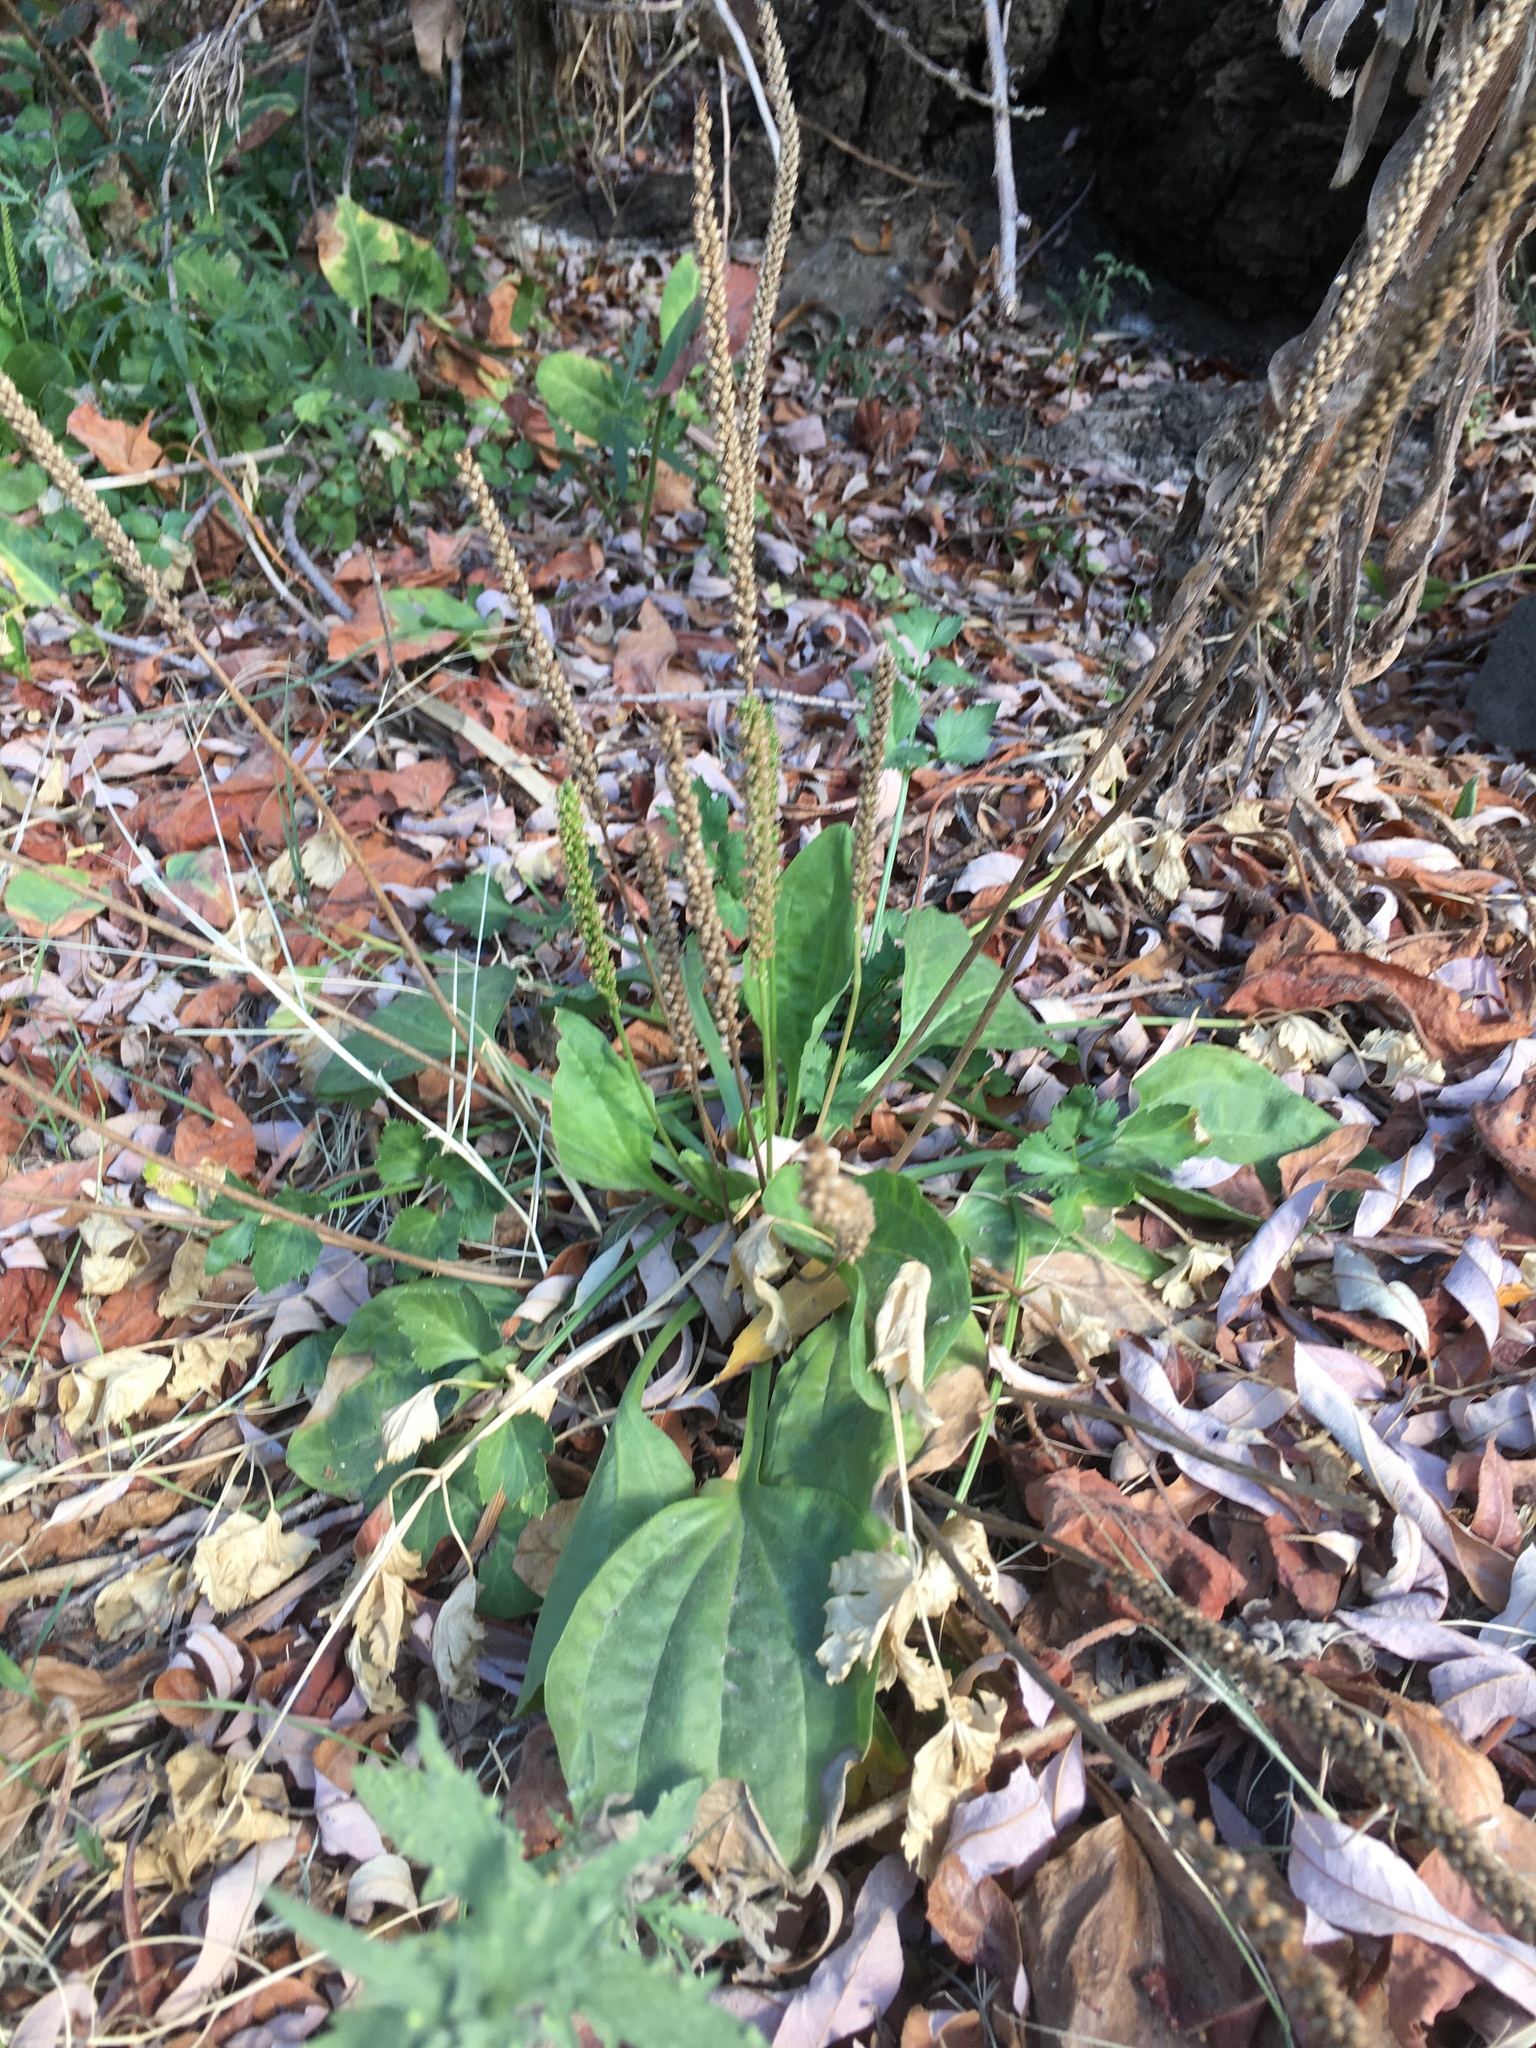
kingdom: Plantae
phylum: Tracheophyta
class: Magnoliopsida
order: Lamiales
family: Plantaginaceae
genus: Plantago
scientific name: Plantago major
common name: Common plantain
